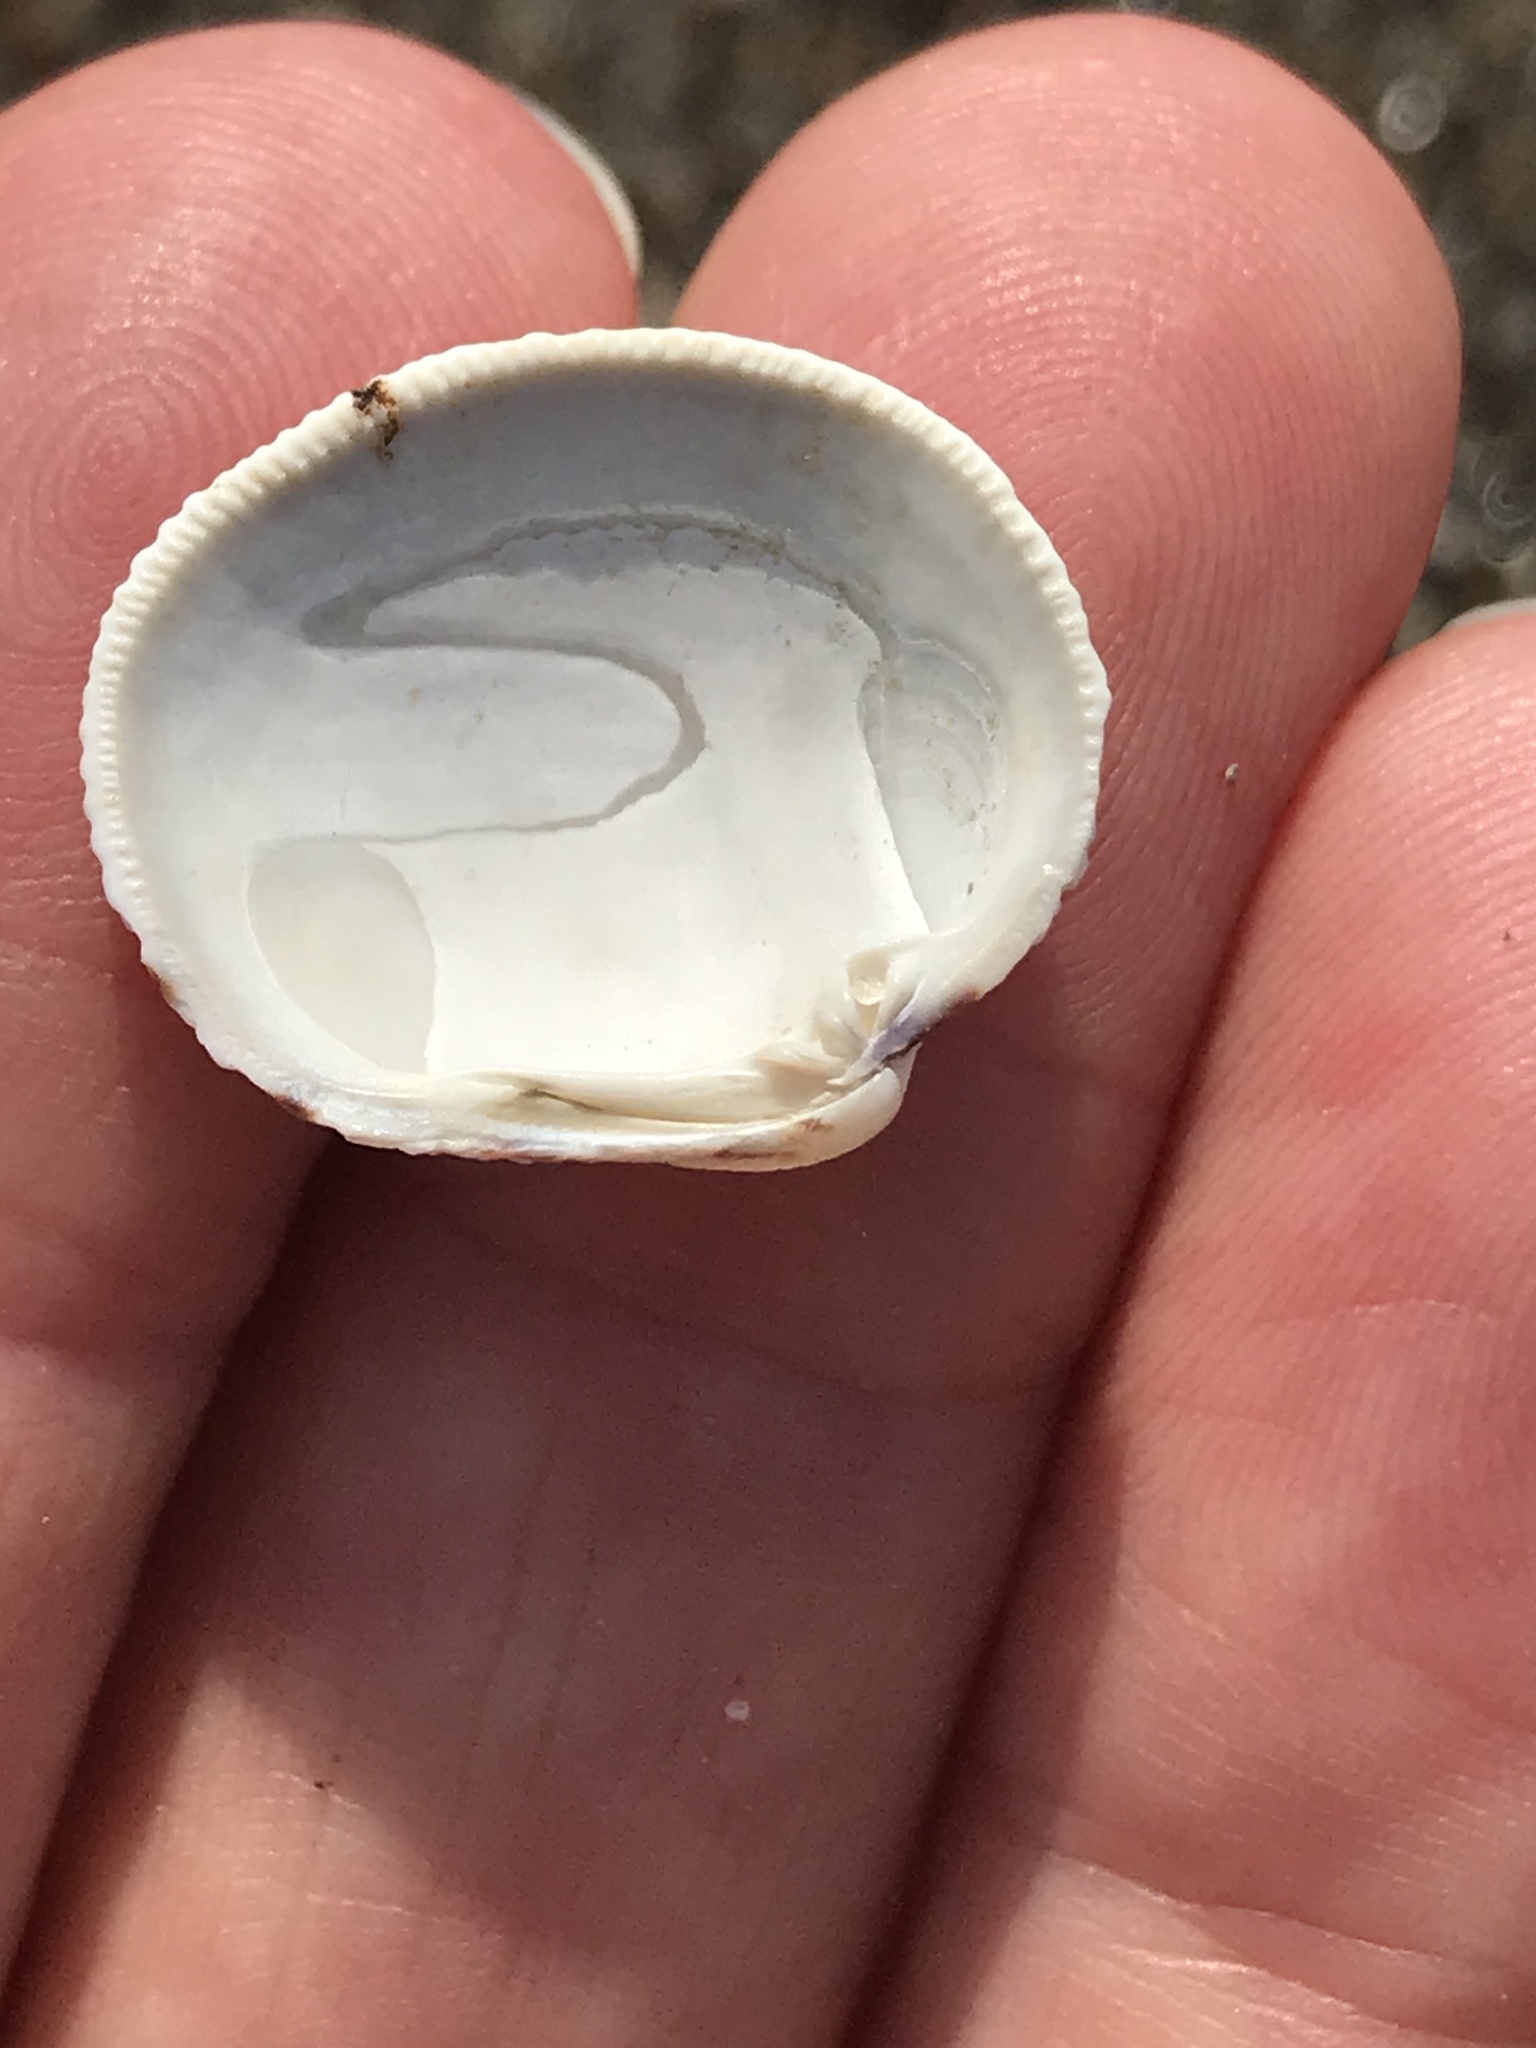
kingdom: Animalia
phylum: Mollusca
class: Bivalvia
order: Venerida
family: Veneridae
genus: Leukoma
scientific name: Leukoma staminea
